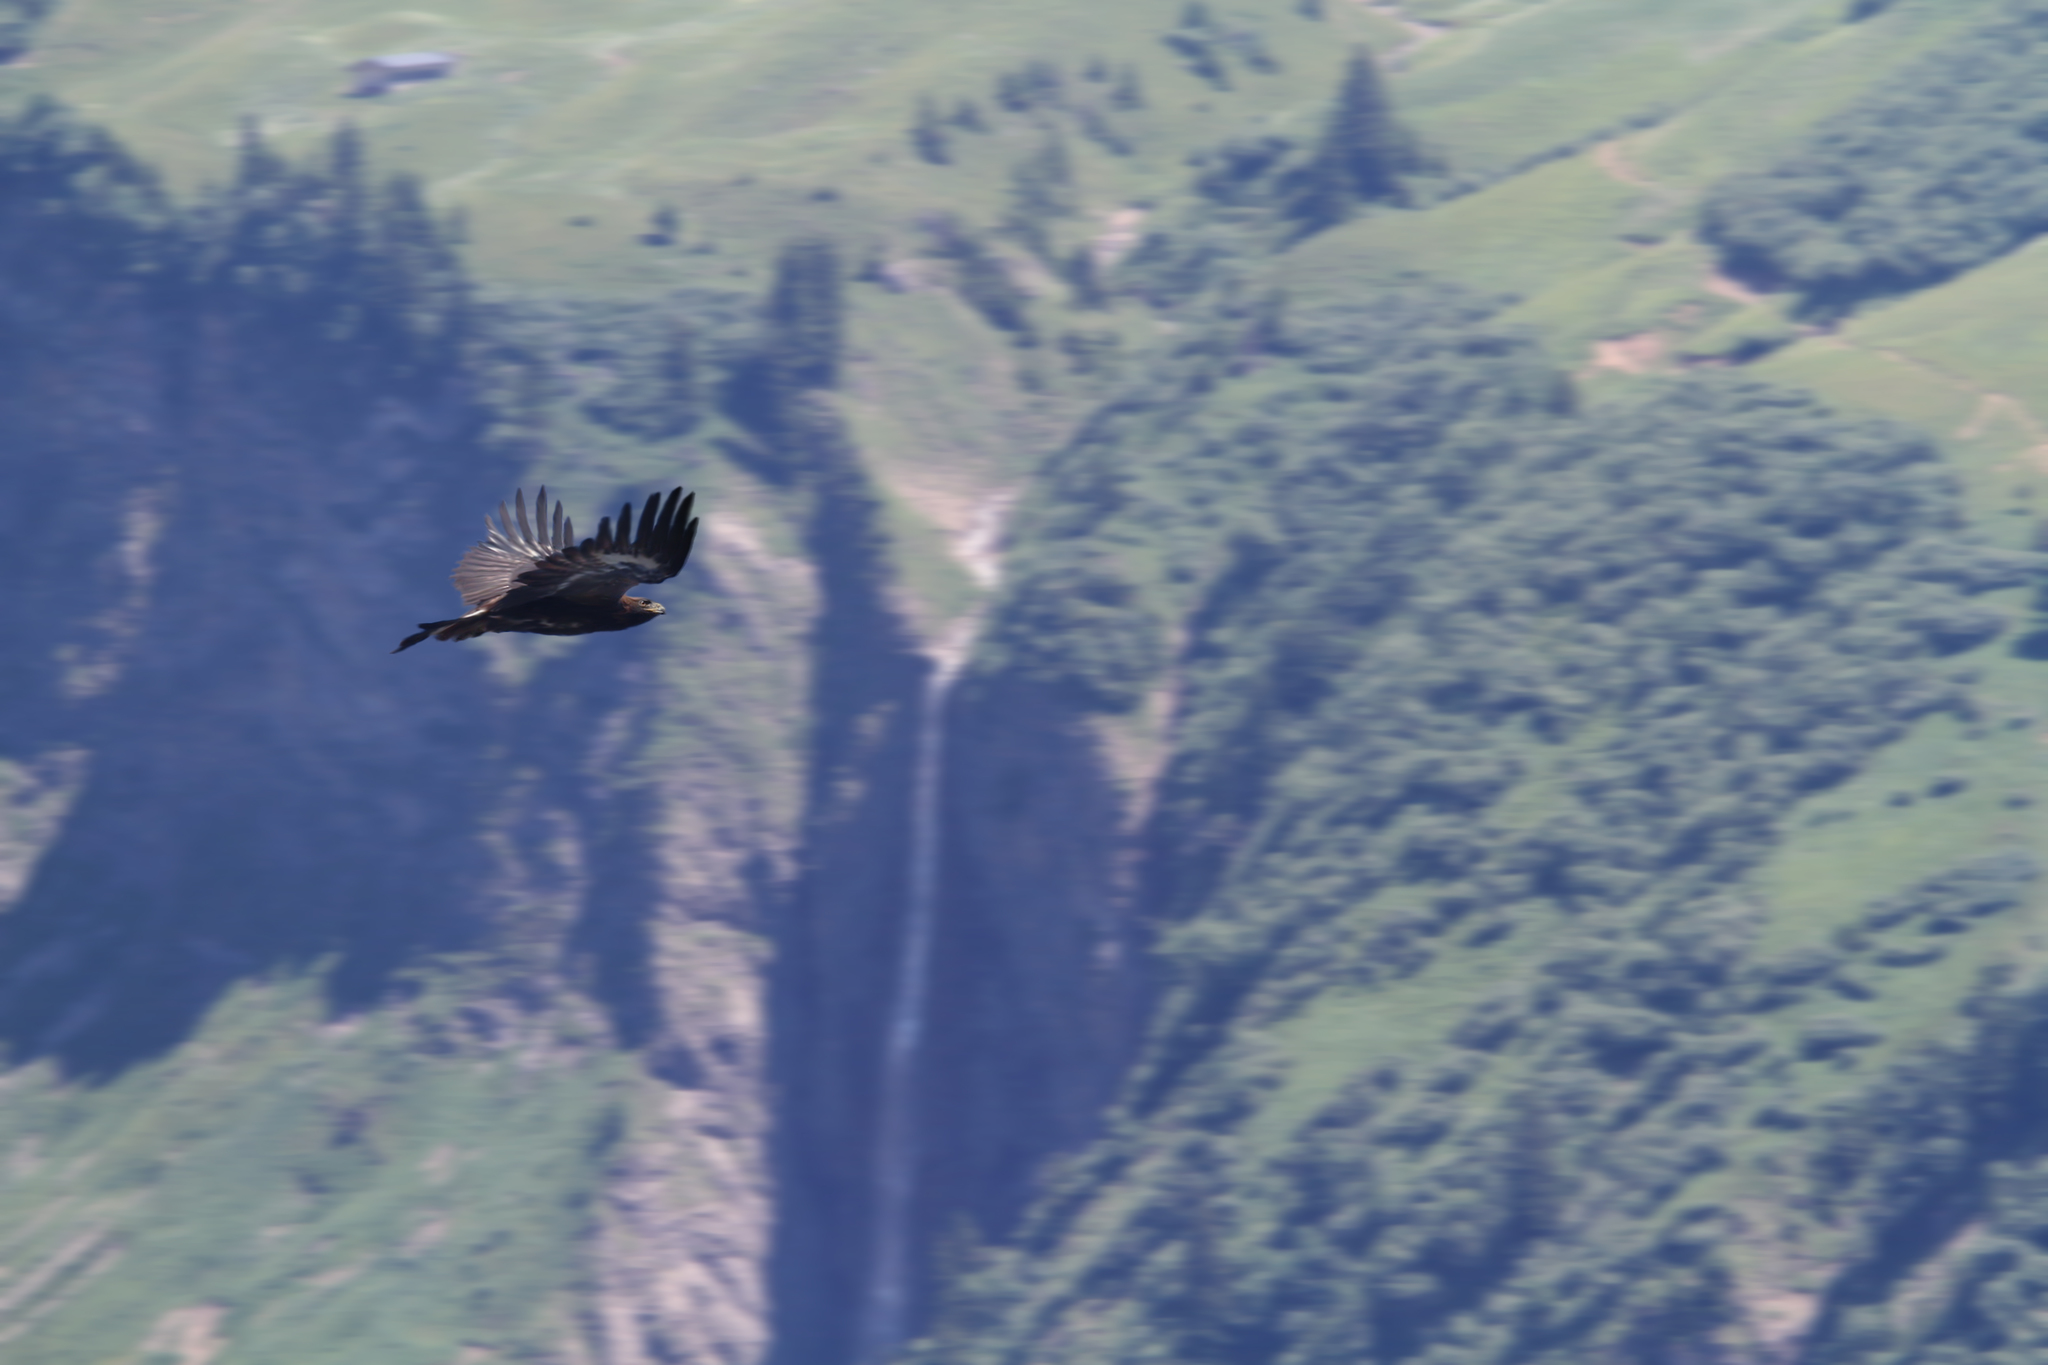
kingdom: Animalia
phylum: Chordata
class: Aves
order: Accipitriformes
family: Accipitridae
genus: Aquila
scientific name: Aquila chrysaetos
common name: Golden eagle
